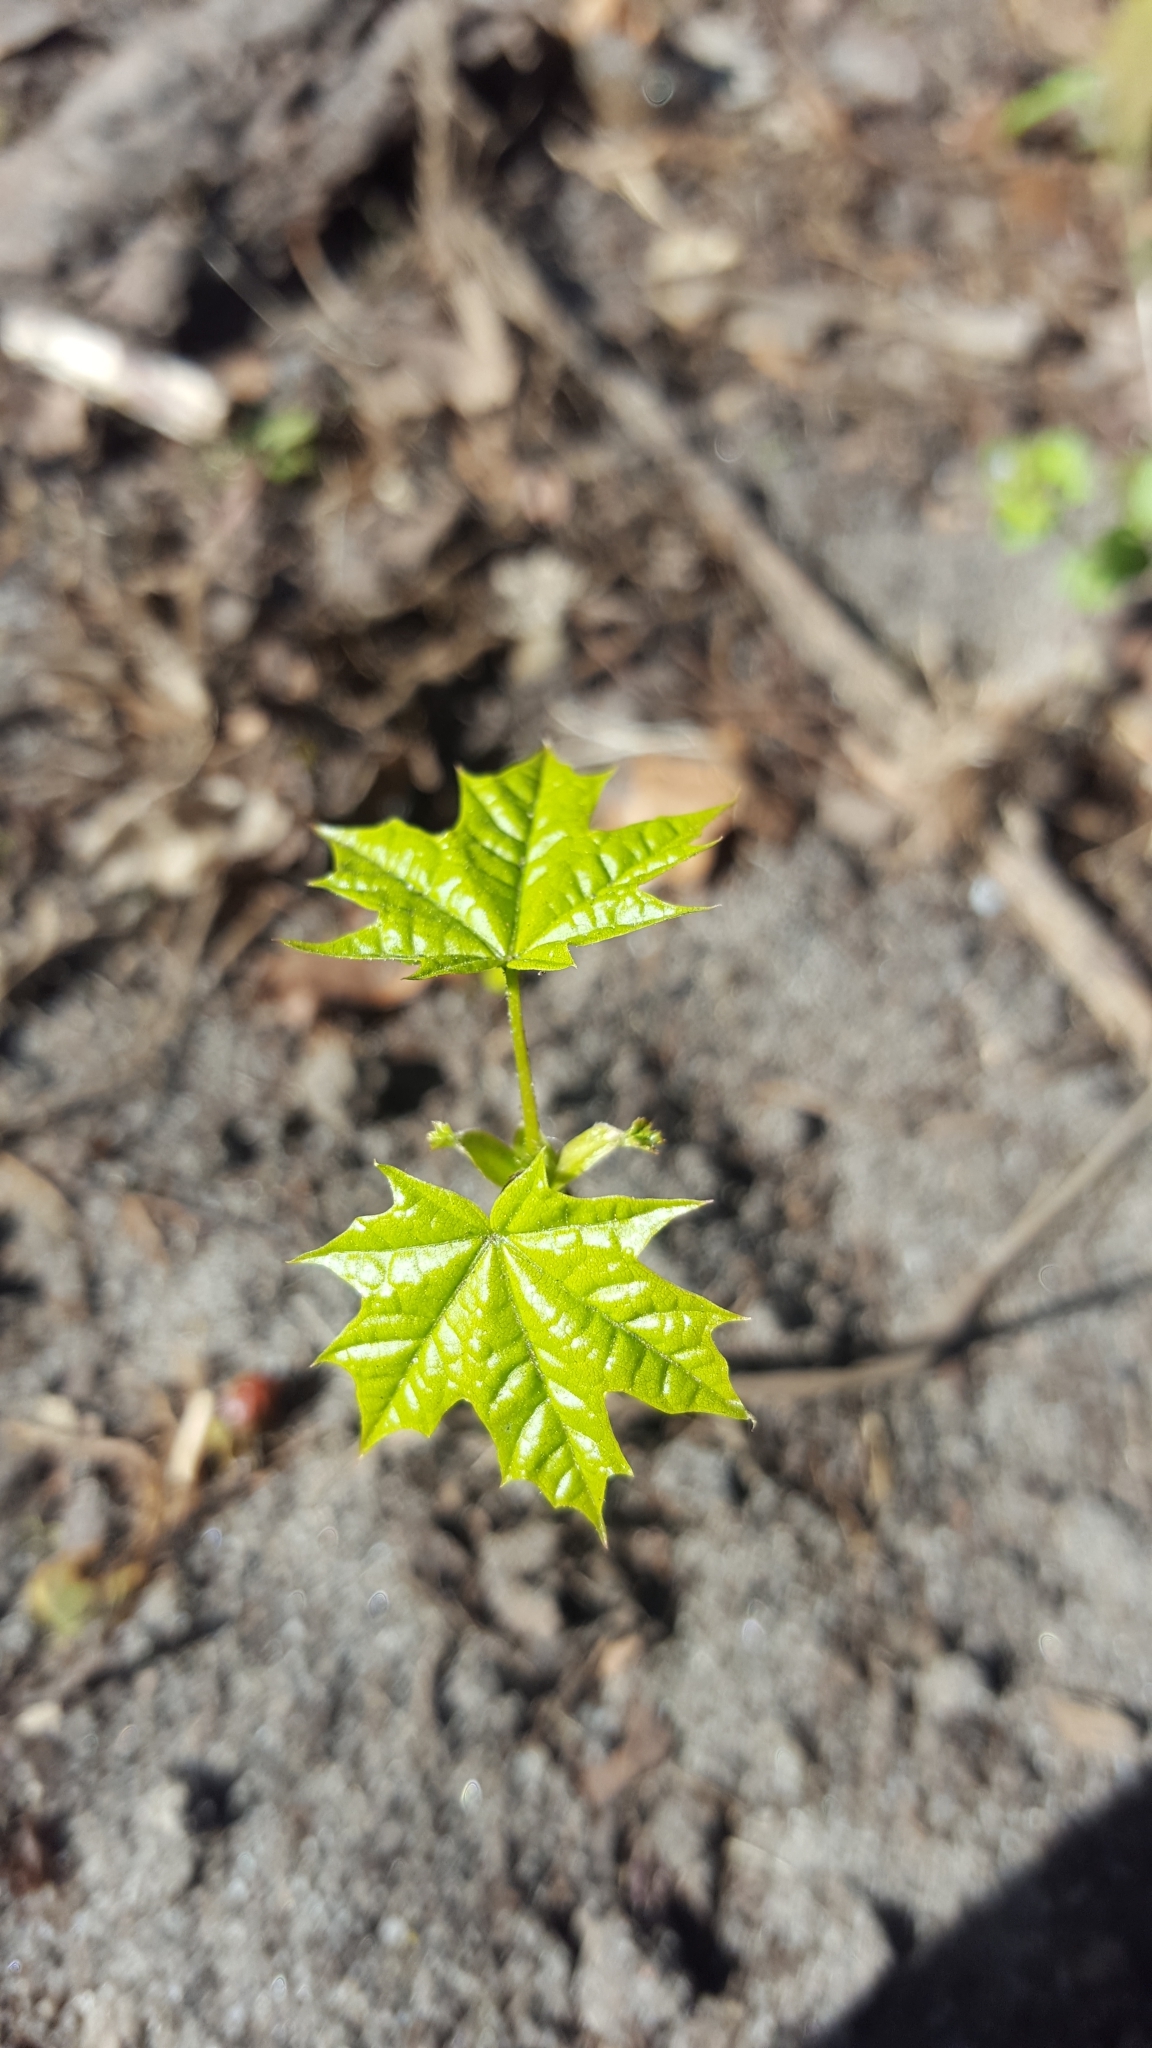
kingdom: Plantae
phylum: Tracheophyta
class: Magnoliopsida
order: Sapindales
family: Sapindaceae
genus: Acer
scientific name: Acer platanoides
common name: Norway maple
